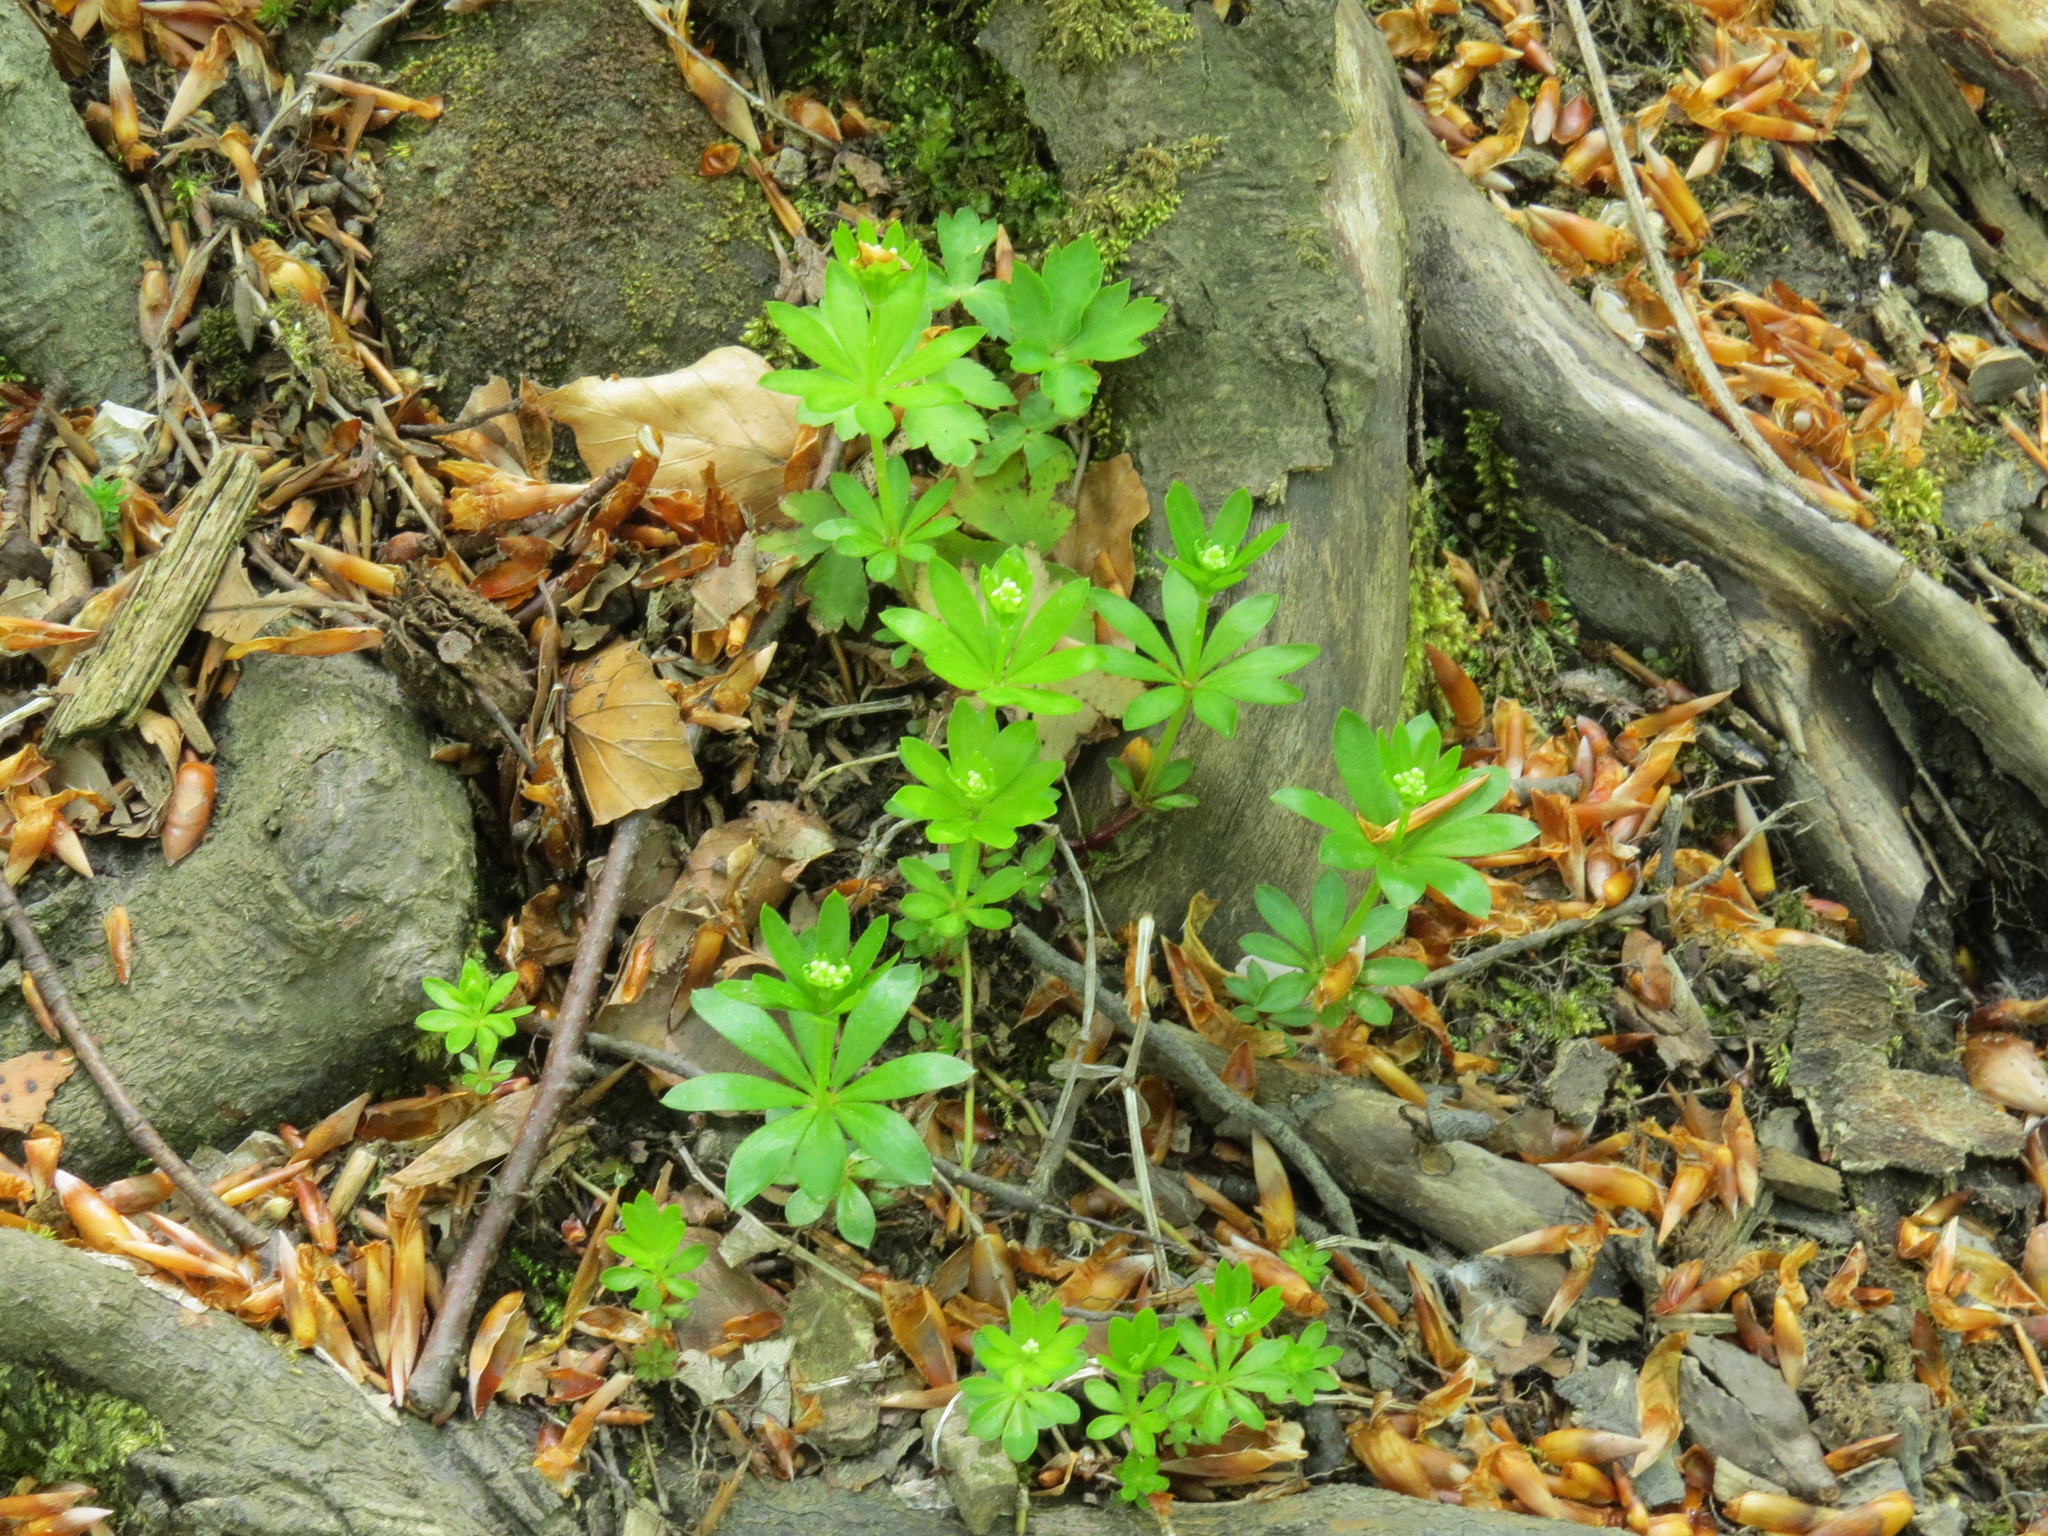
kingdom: Plantae
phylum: Tracheophyta
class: Magnoliopsida
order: Gentianales
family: Rubiaceae
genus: Galium
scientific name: Galium odoratum
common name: Sweet woodruff
